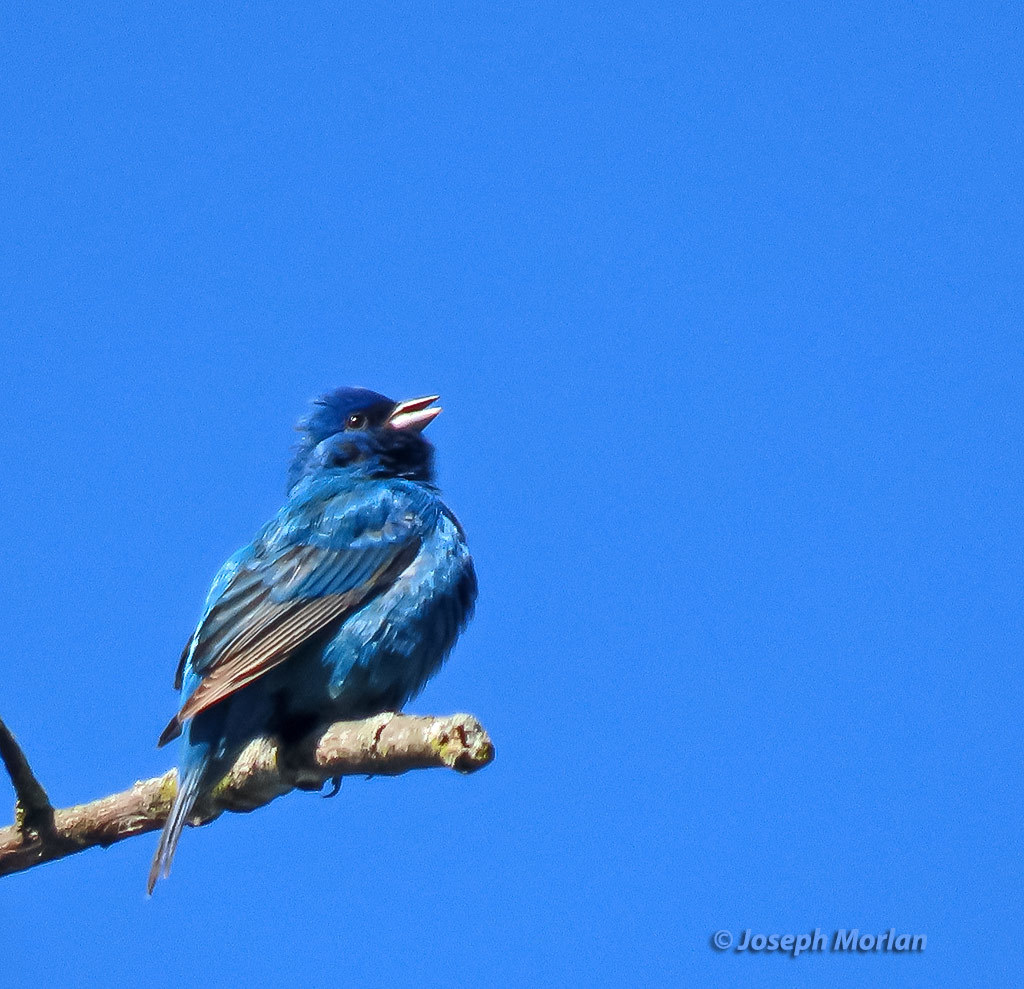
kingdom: Animalia
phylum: Chordata
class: Aves
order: Passeriformes
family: Cardinalidae
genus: Passerina
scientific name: Passerina cyanea
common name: Indigo bunting
